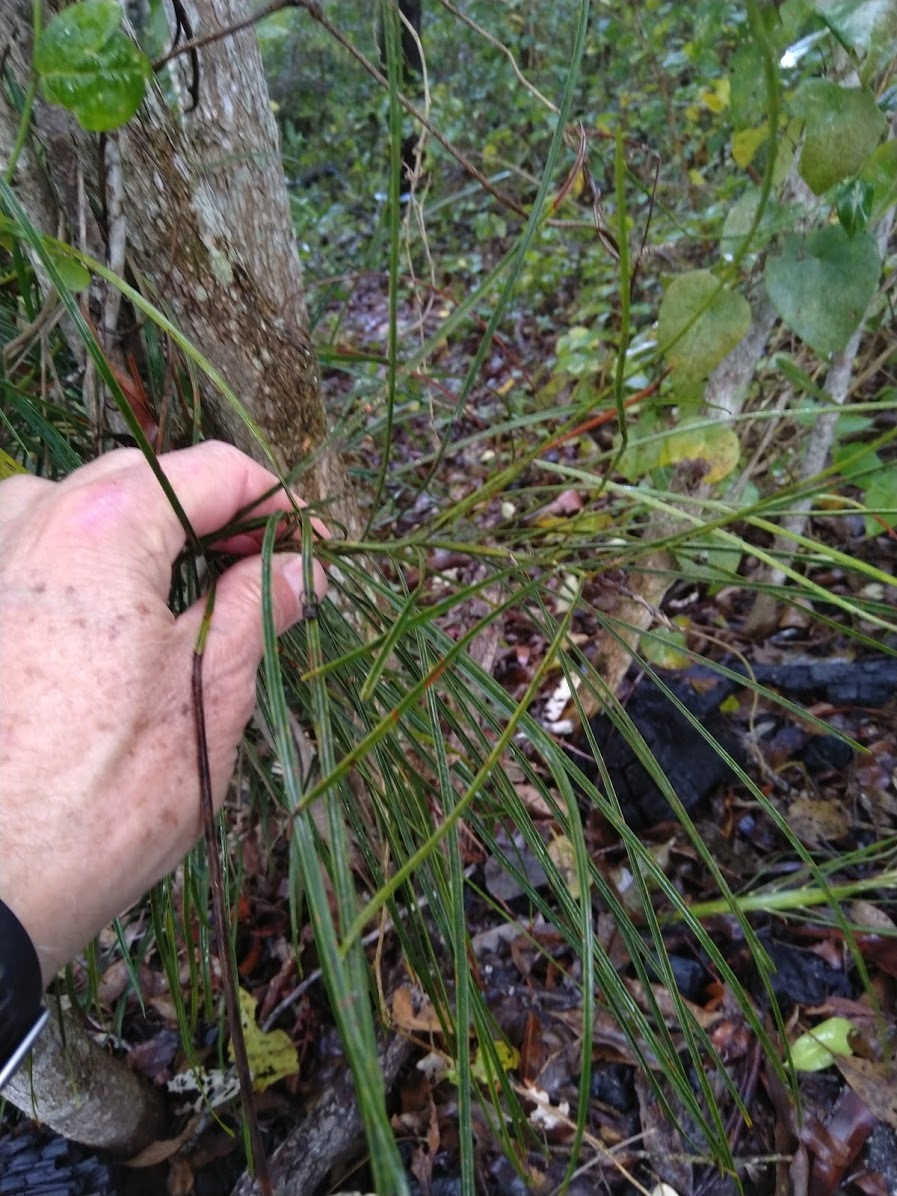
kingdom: Plantae
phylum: Tracheophyta
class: Cycadopsida
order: Cycadales
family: Zamiaceae
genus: Macrozamia
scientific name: Macrozamia pauli-guilielmi
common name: Pineapple zamia
